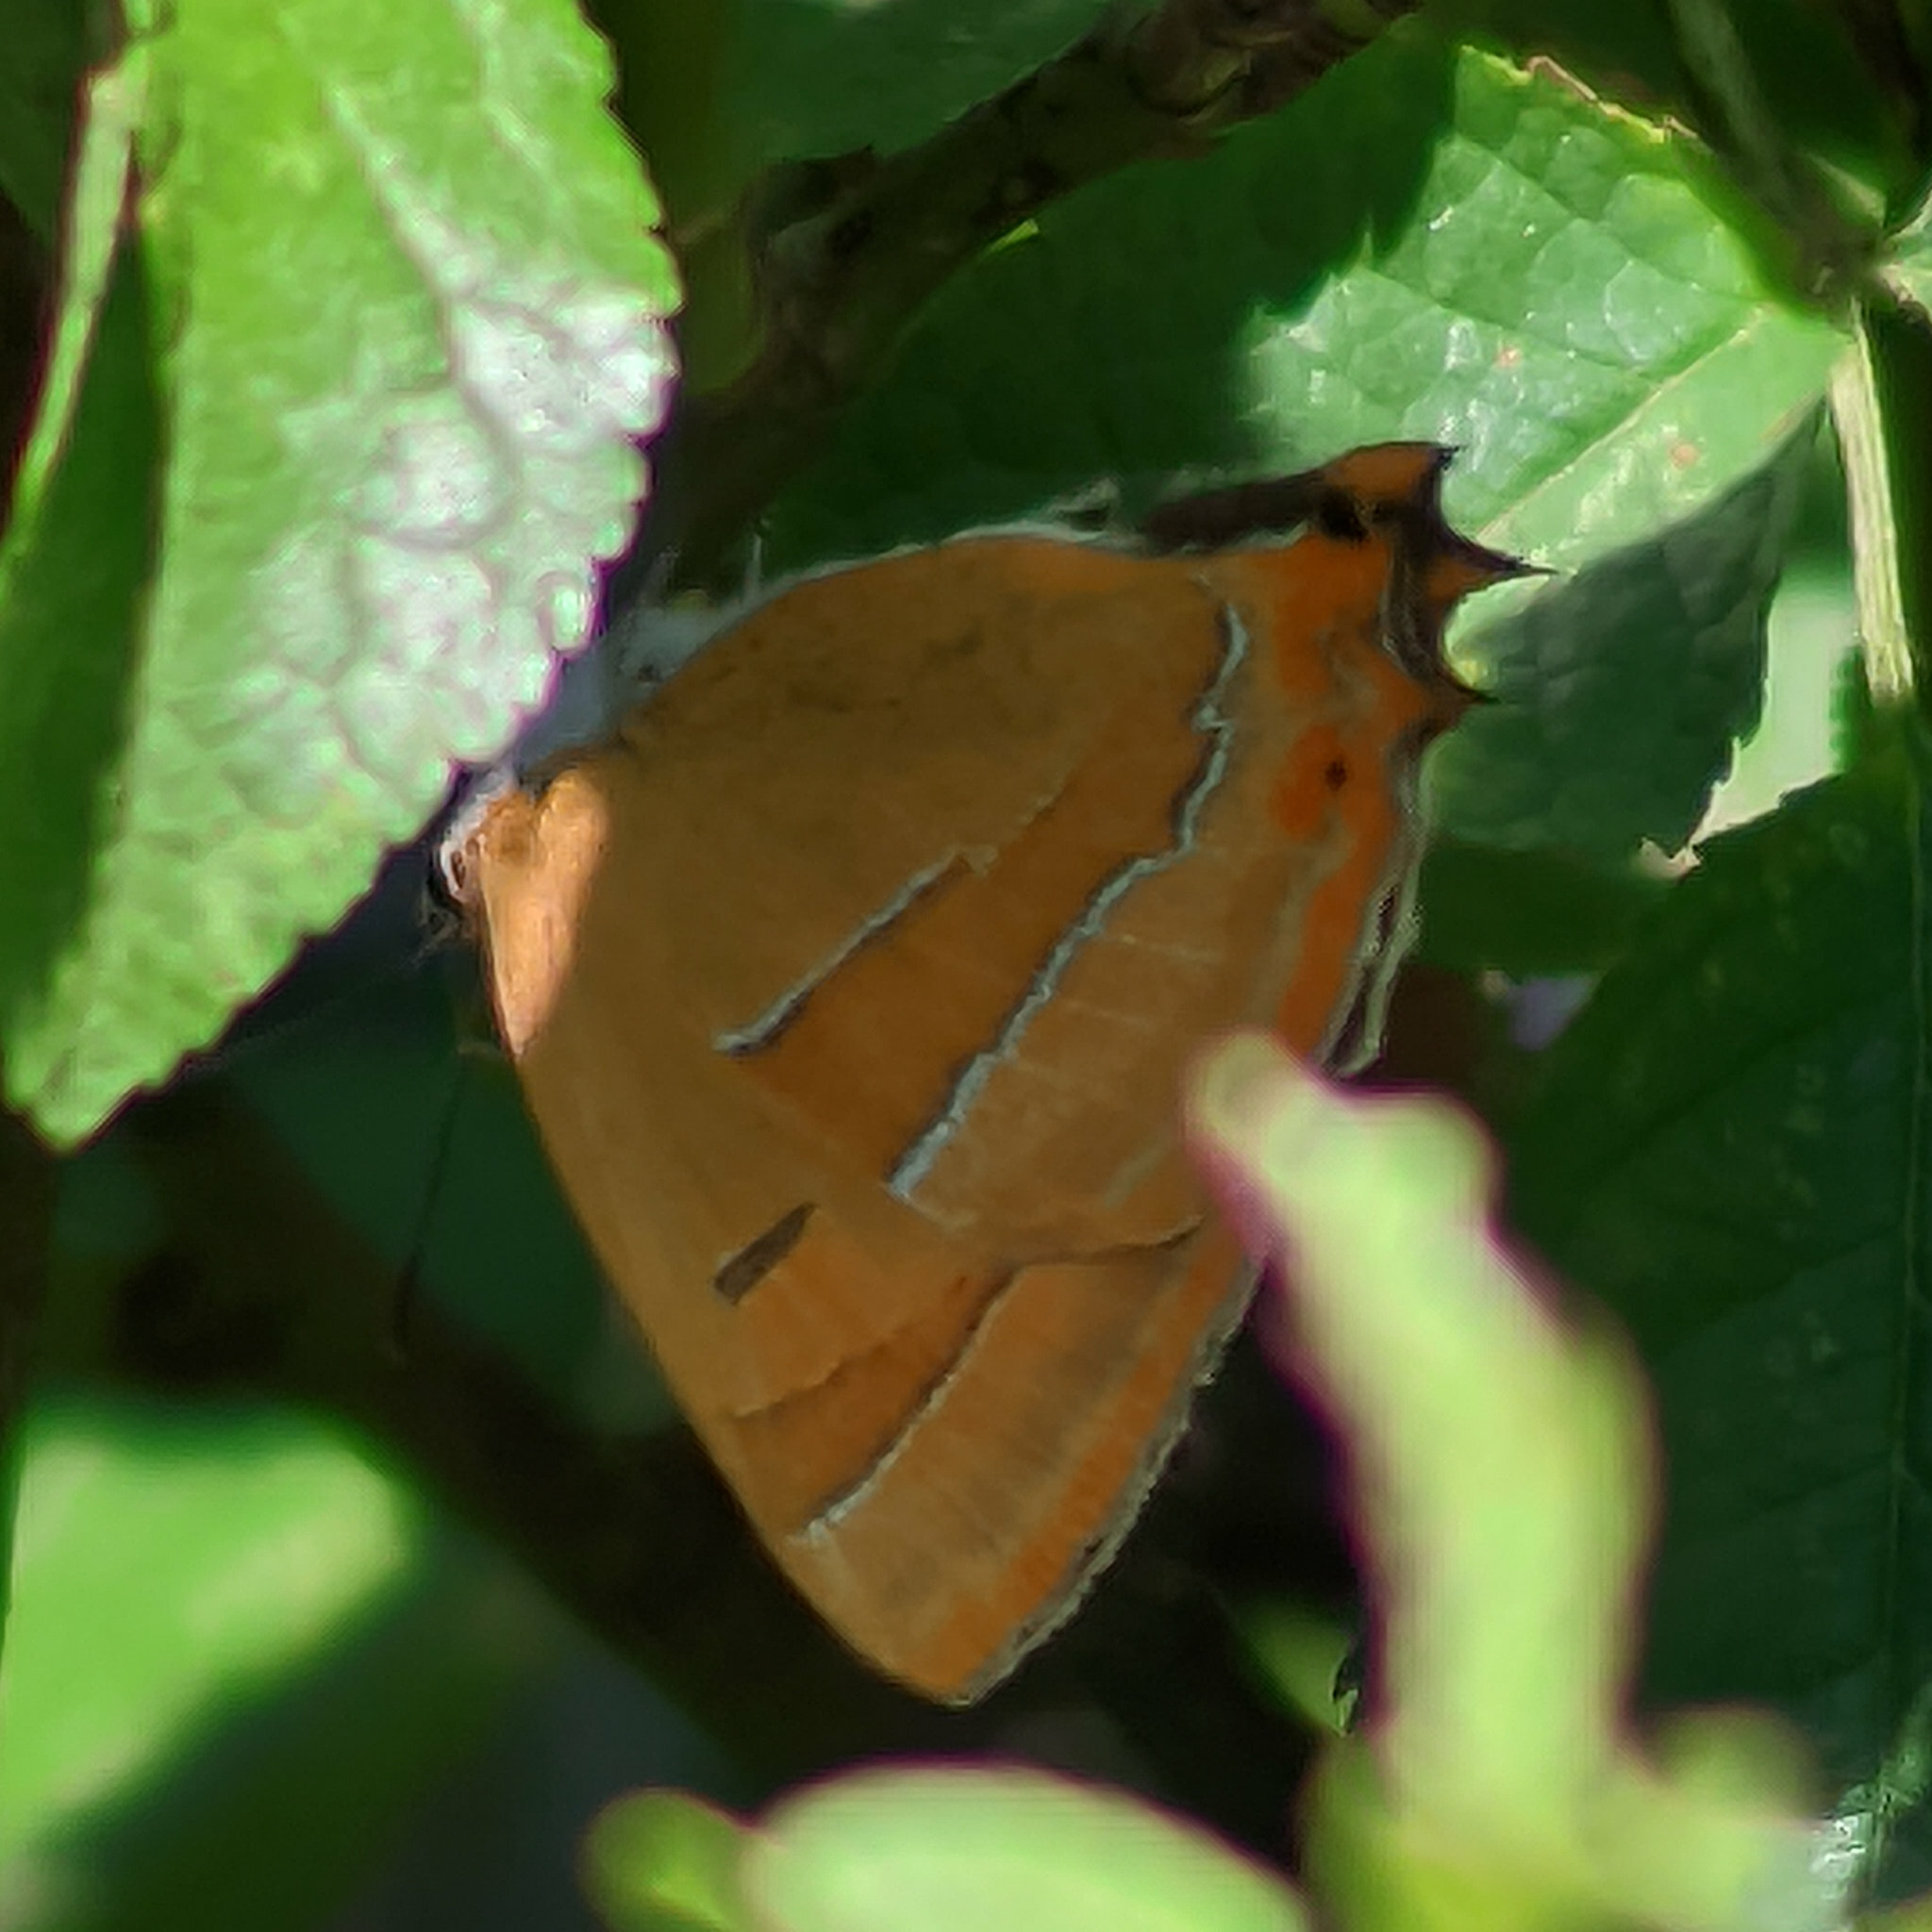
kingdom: Animalia
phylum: Arthropoda
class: Insecta
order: Lepidoptera
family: Lycaenidae
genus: Thecla
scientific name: Thecla betulae
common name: Brown hairstreak
